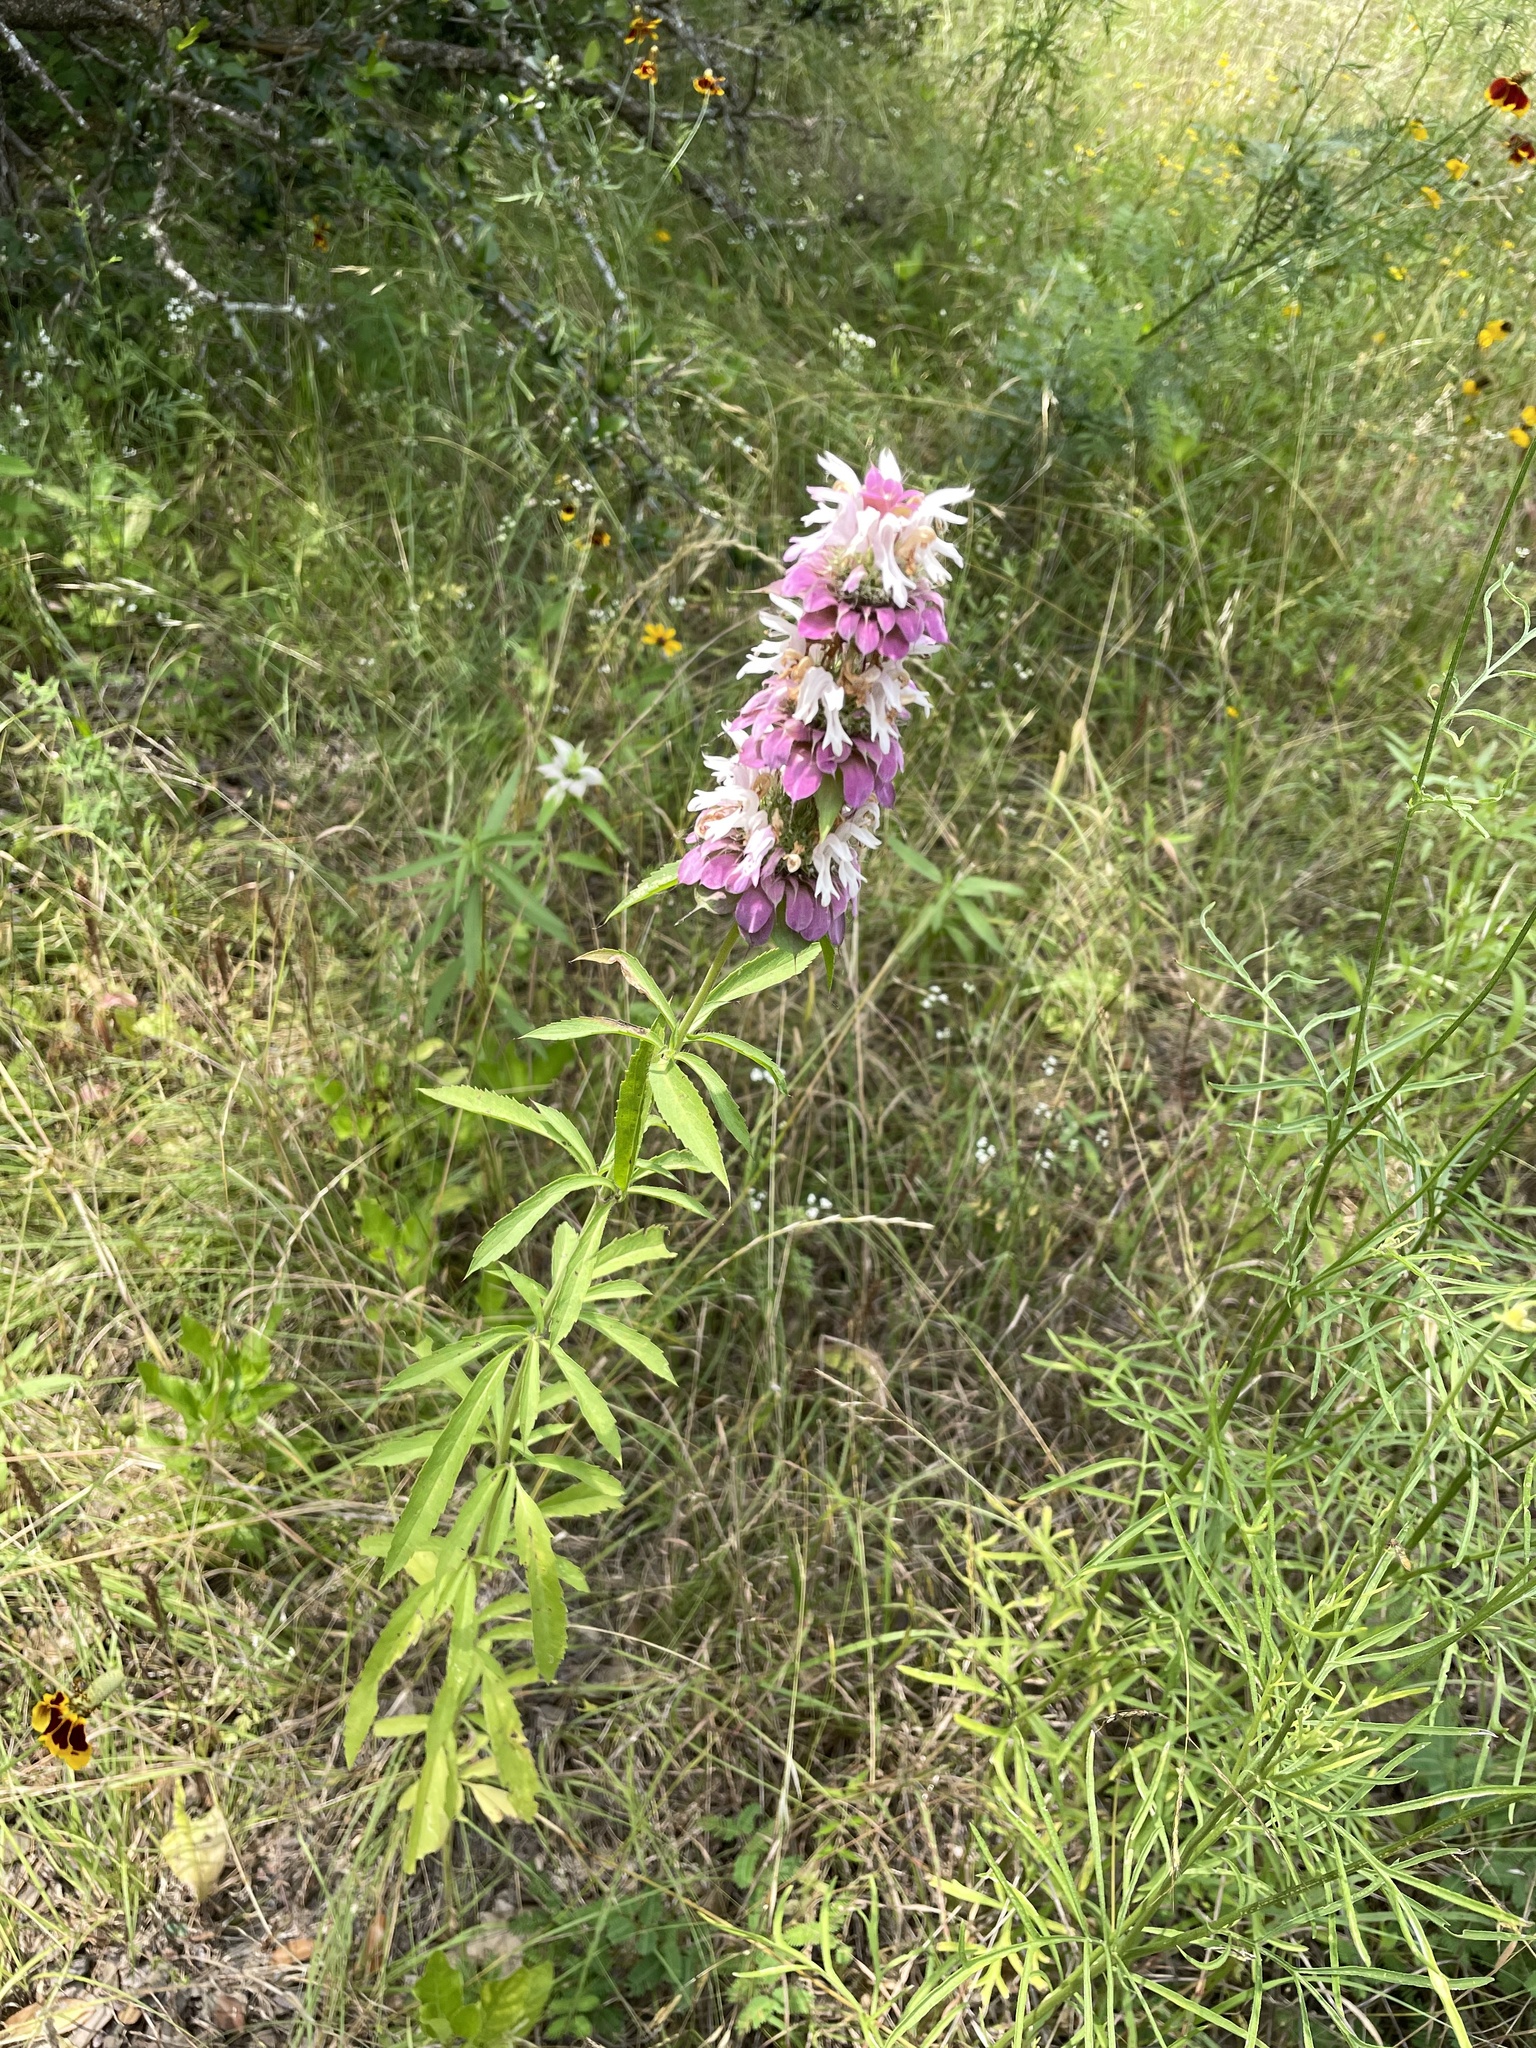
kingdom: Plantae
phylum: Tracheophyta
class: Magnoliopsida
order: Lamiales
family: Lamiaceae
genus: Monarda
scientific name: Monarda citriodora
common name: Lemon beebalm
